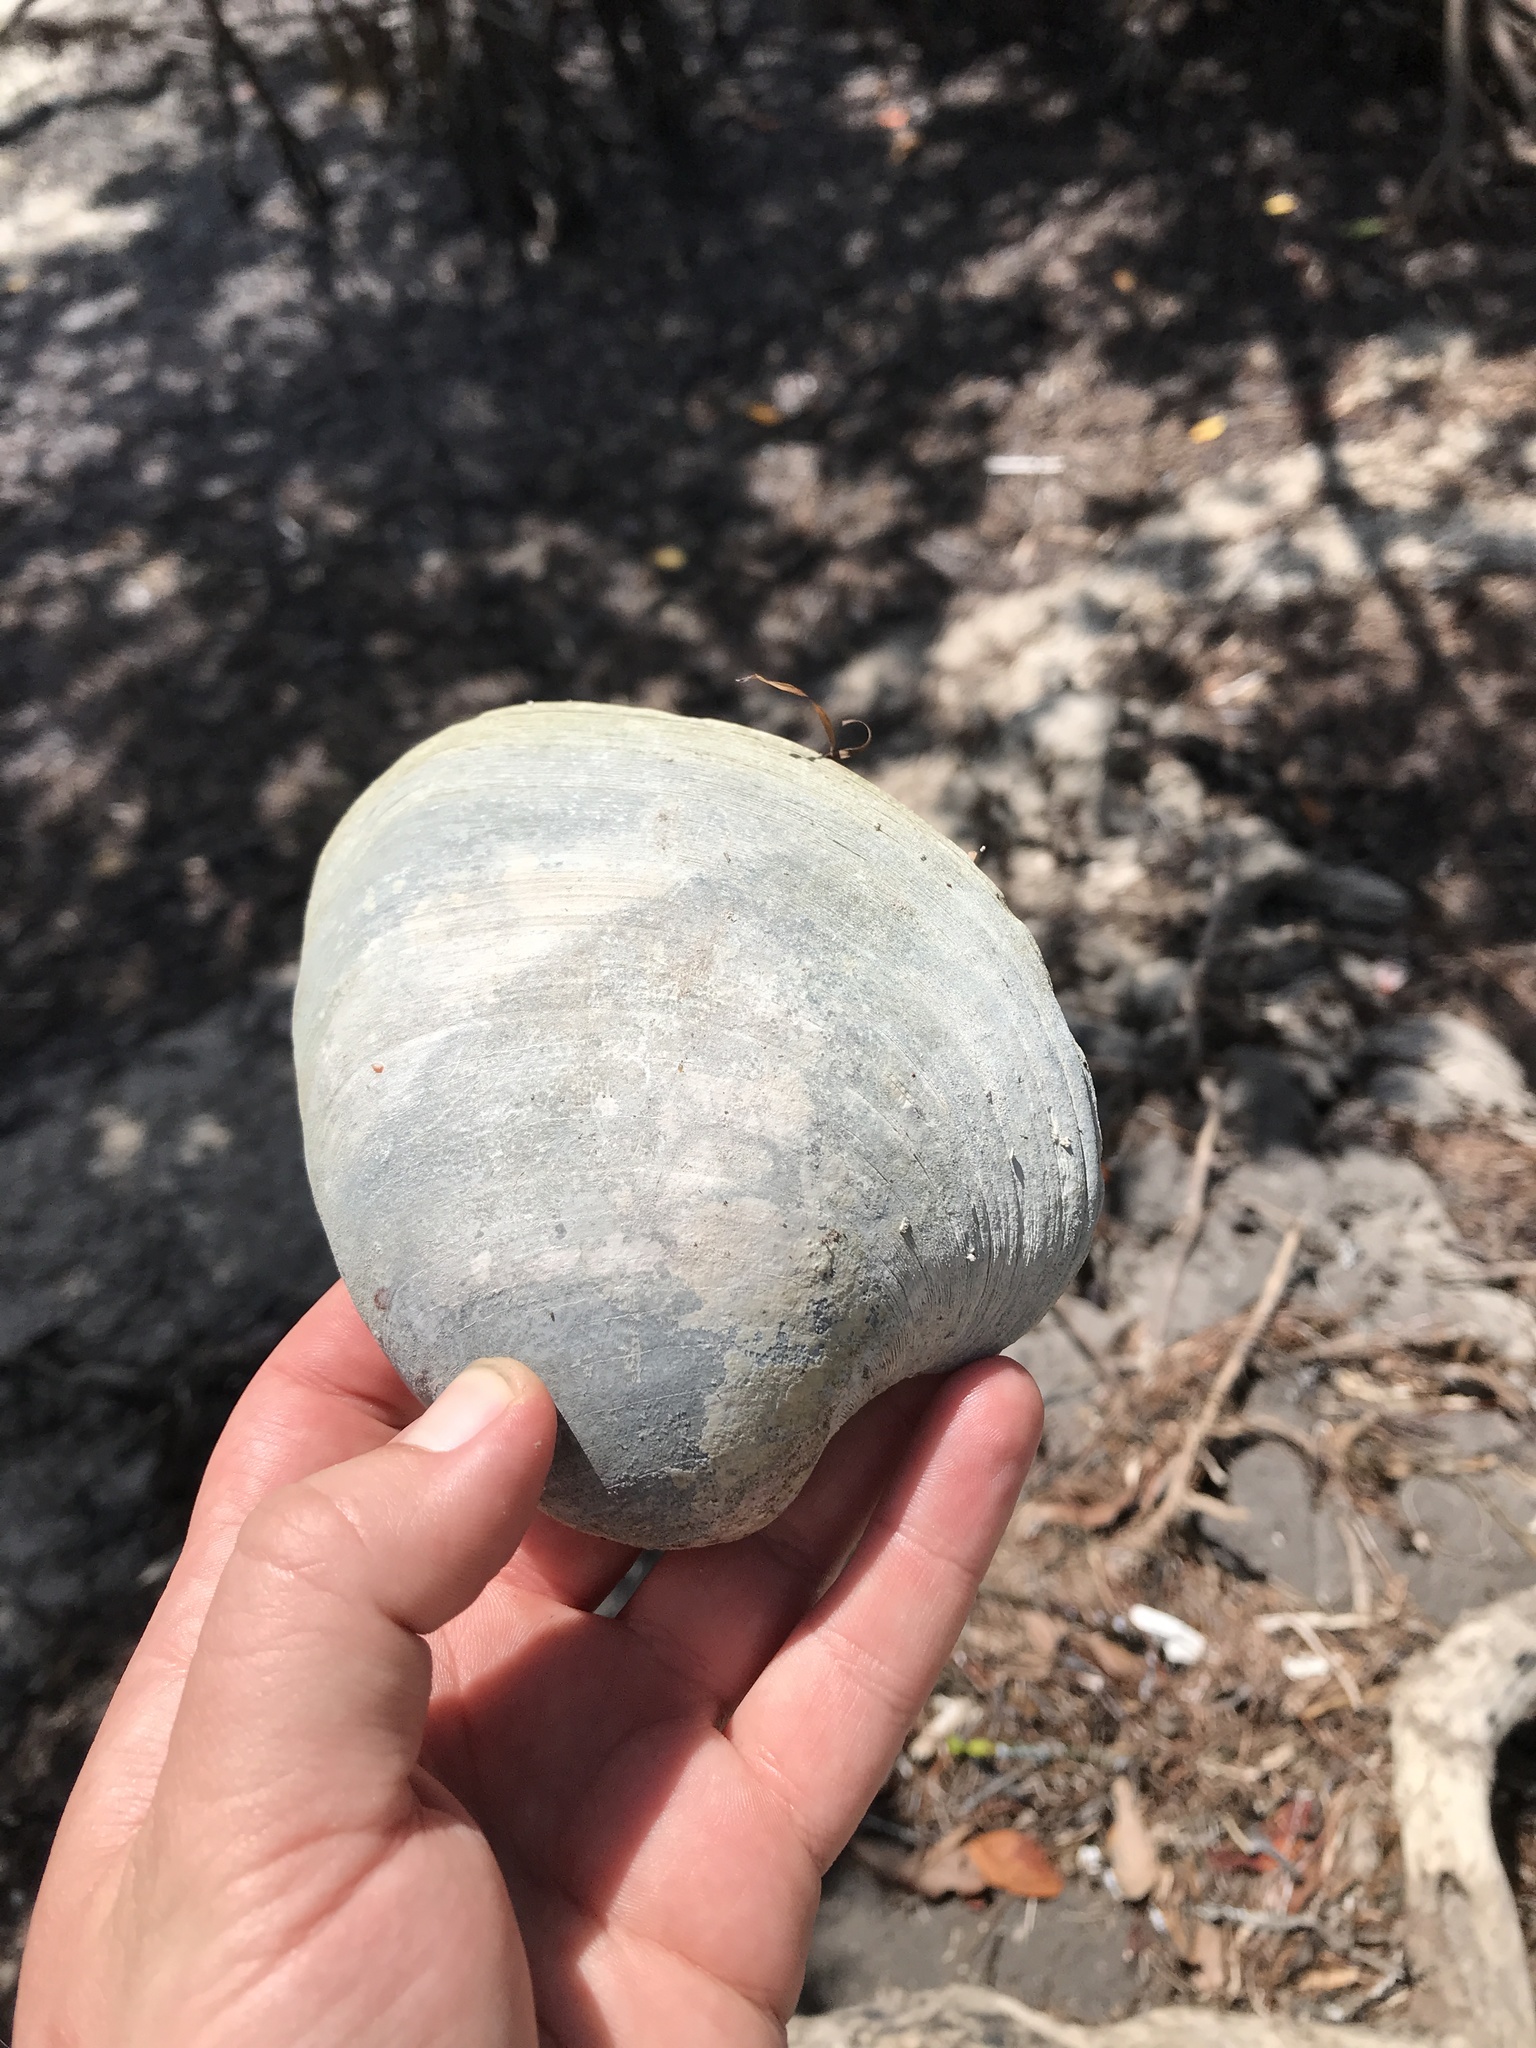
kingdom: Animalia
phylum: Mollusca
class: Bivalvia
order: Venerida
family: Veneridae
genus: Mercenaria
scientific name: Mercenaria mercenaria
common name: American hard-shelled clam
